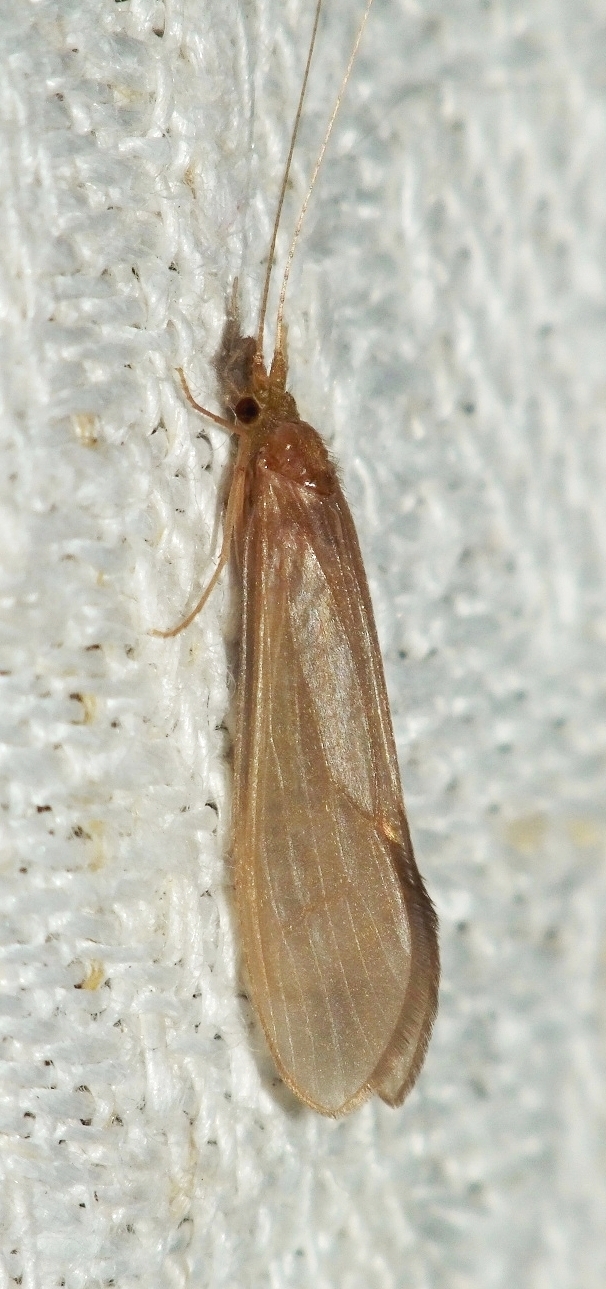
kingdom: Animalia
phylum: Arthropoda
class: Insecta
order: Trichoptera
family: Leptoceridae
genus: Oecetis
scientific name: Oecetis ochracea
